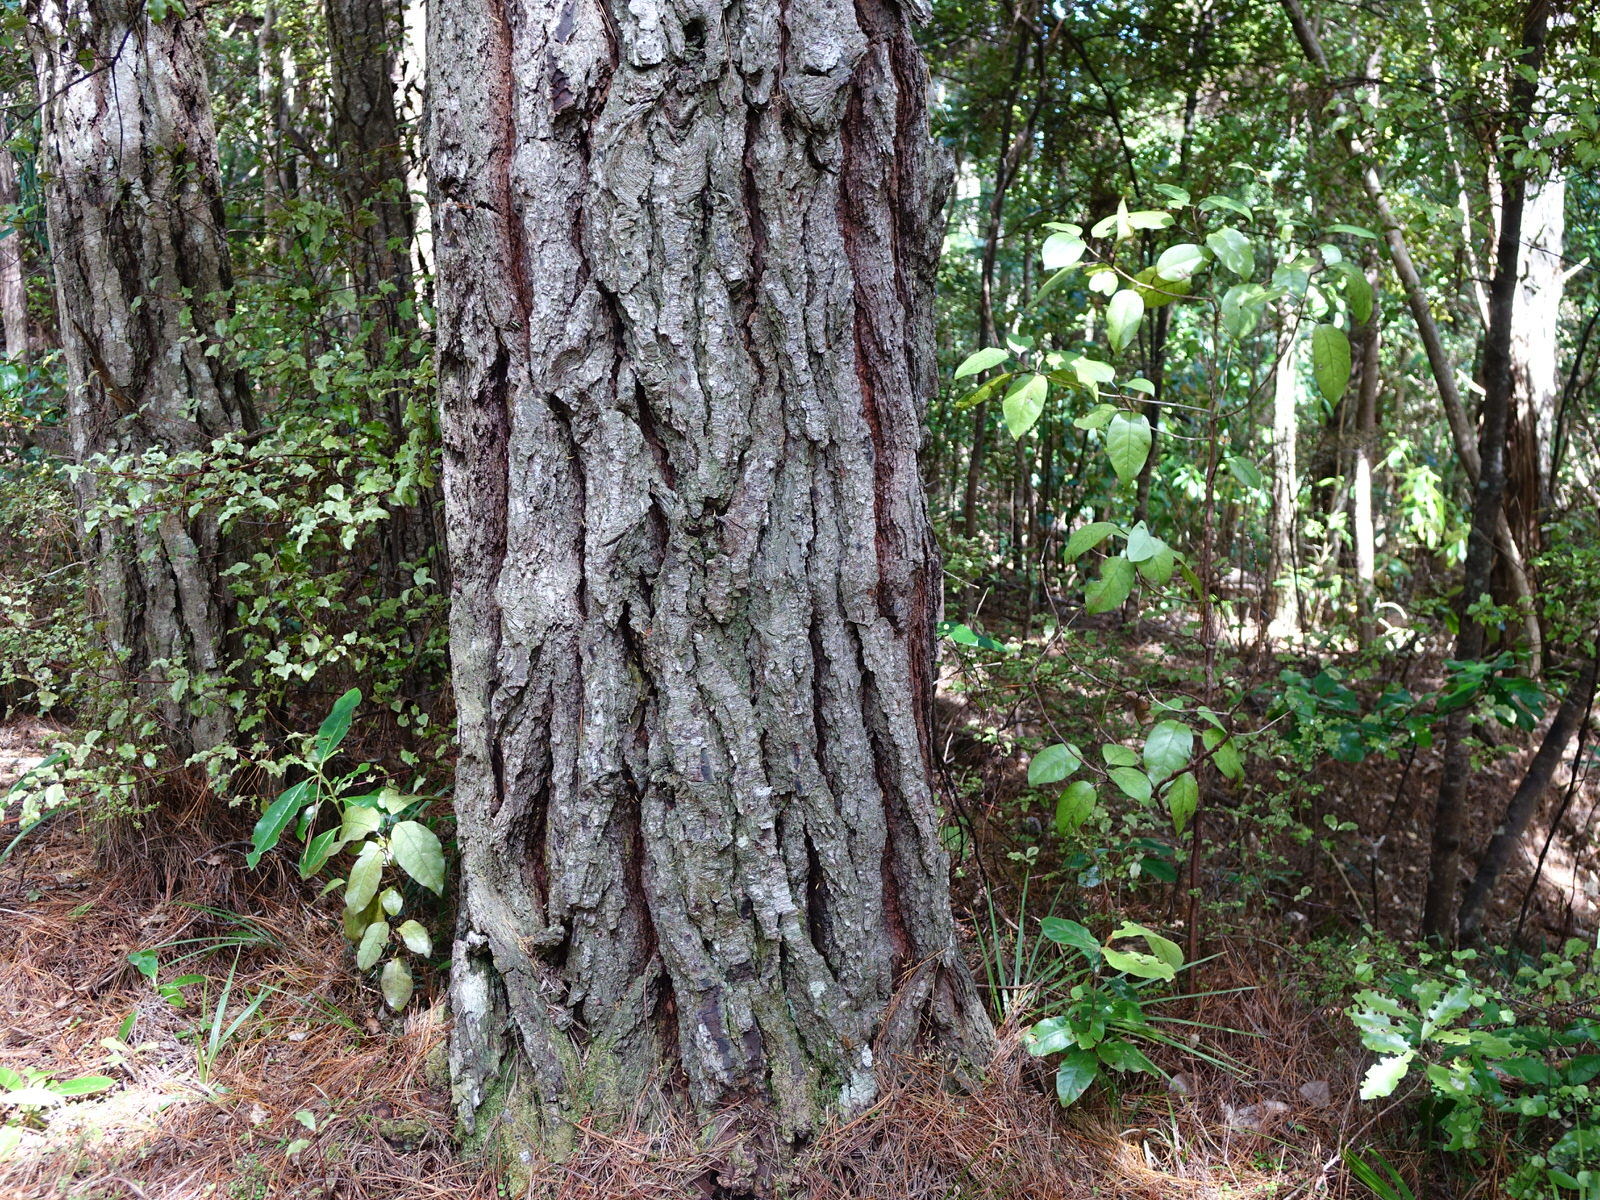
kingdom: Plantae
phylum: Tracheophyta
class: Magnoliopsida
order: Laurales
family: Lauraceae
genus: Litsea
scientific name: Litsea calicaris
